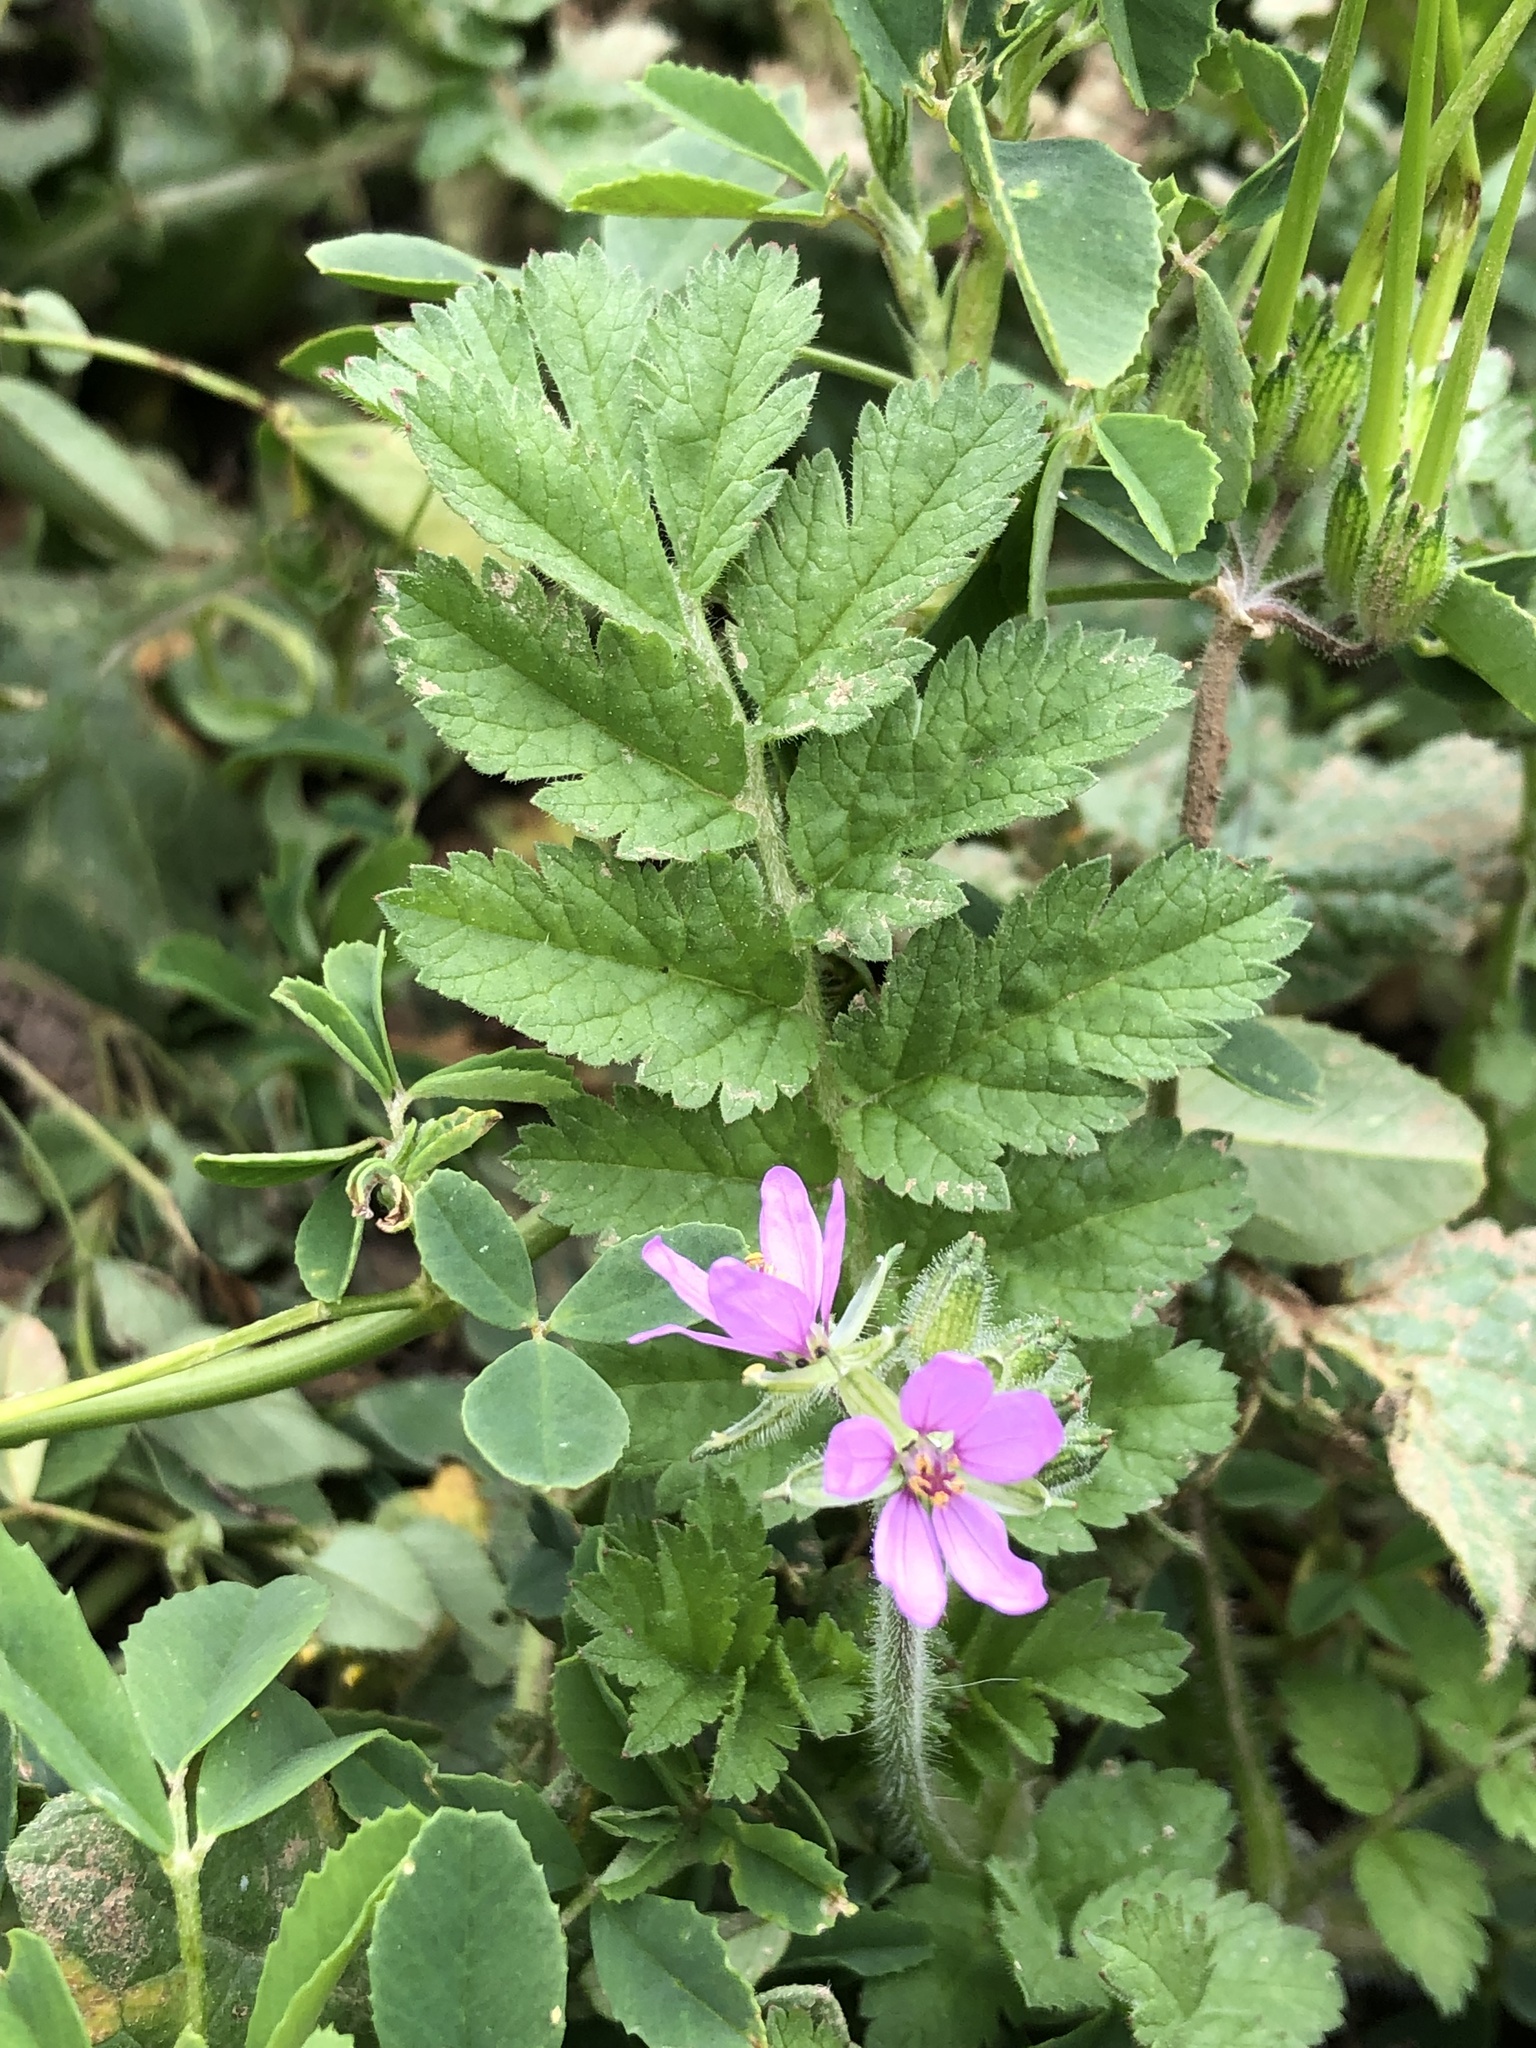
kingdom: Plantae
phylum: Tracheophyta
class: Magnoliopsida
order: Geraniales
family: Geraniaceae
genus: Erodium
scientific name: Erodium moschatum
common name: Musk stork's-bill
